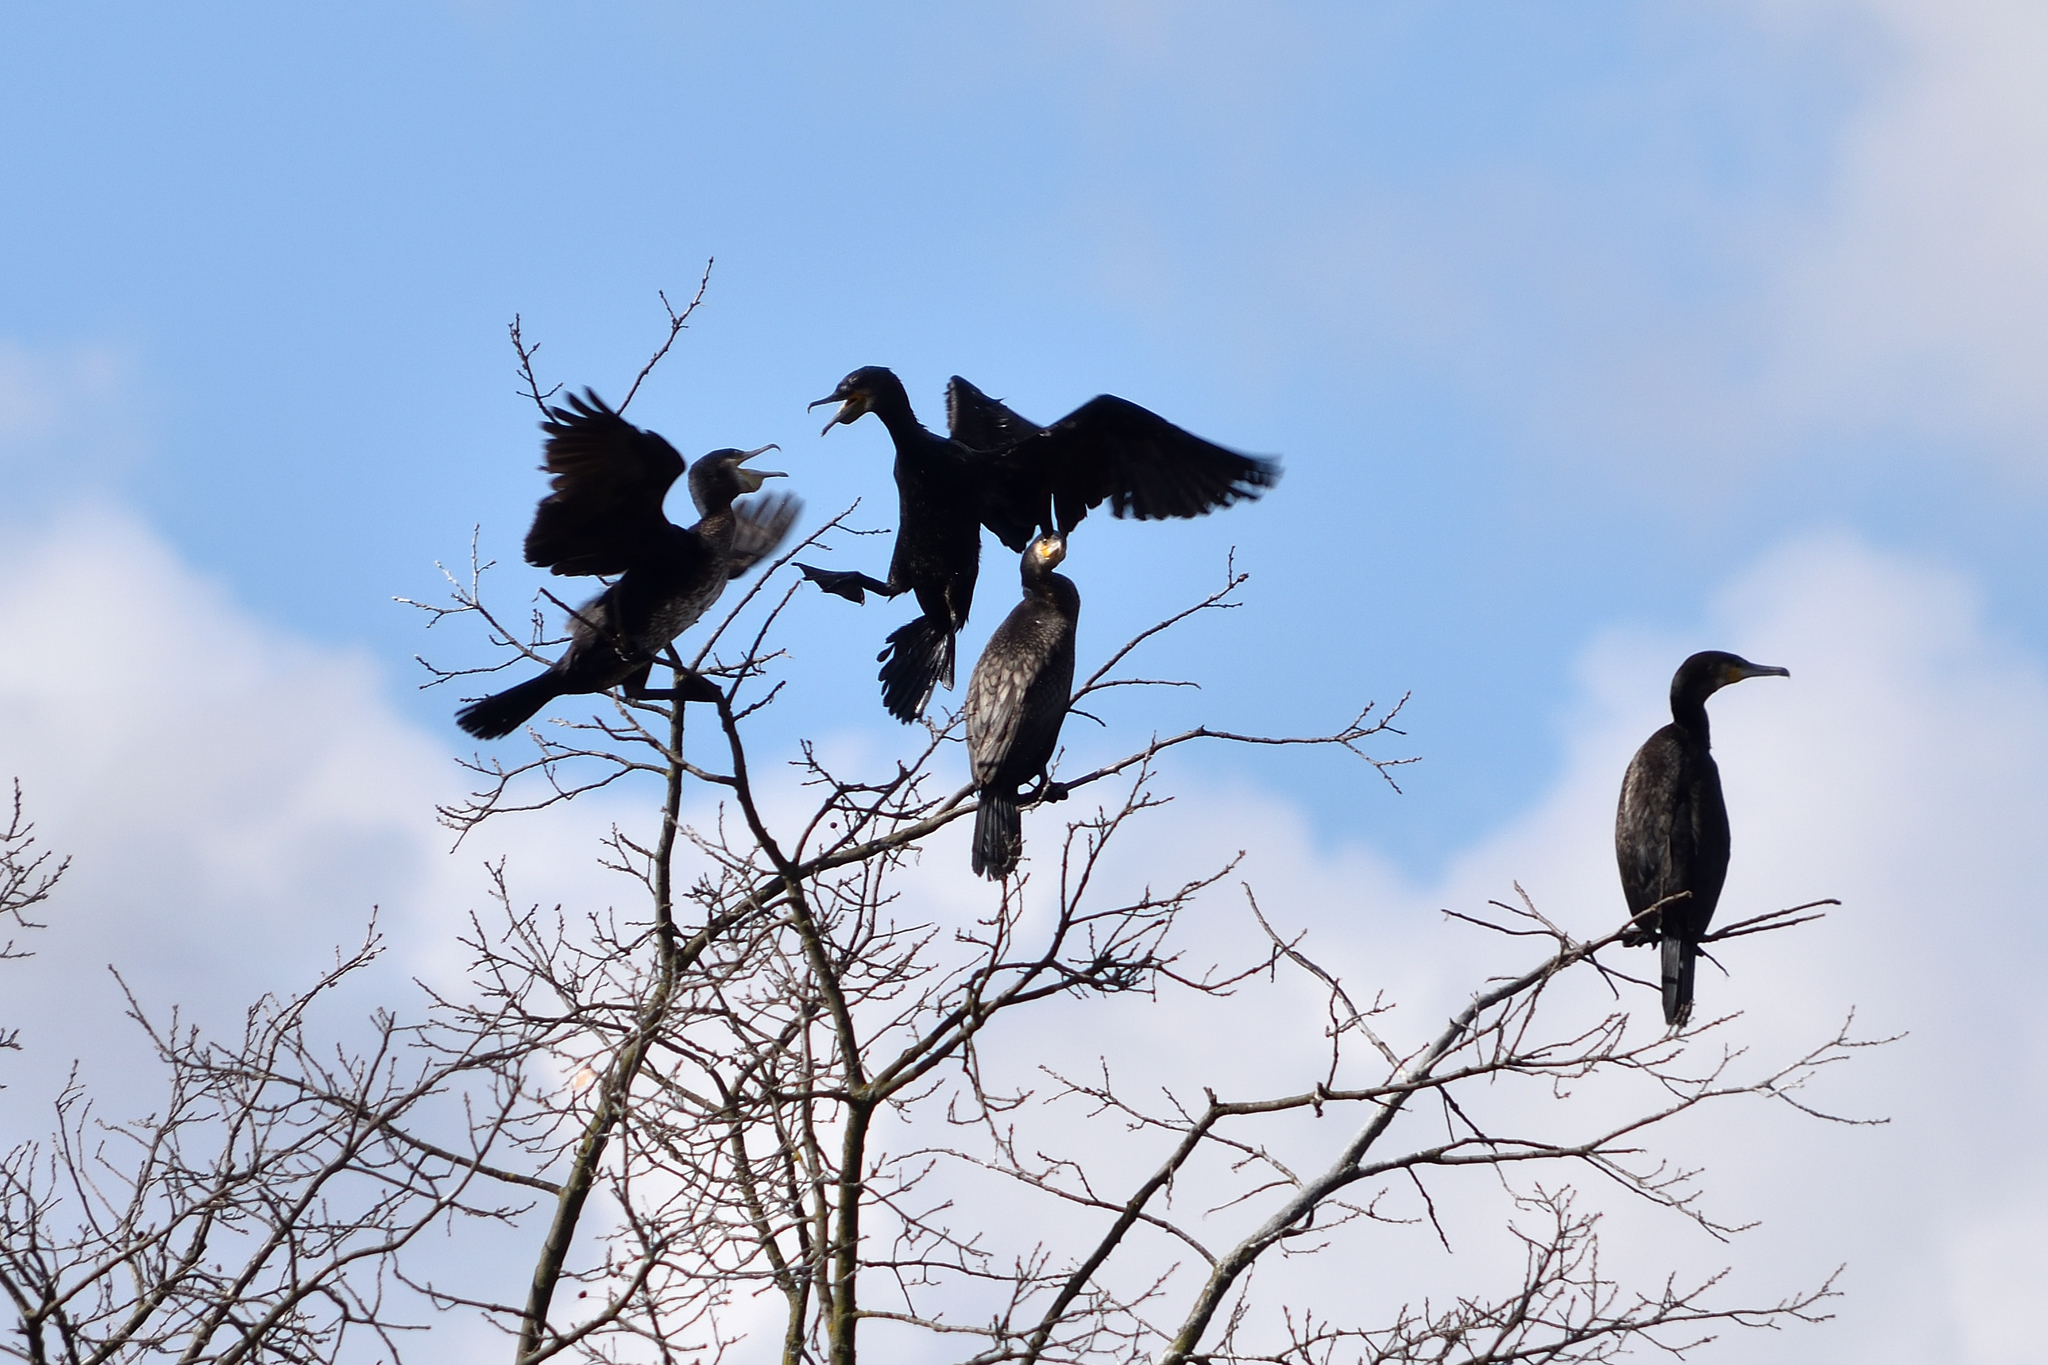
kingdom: Animalia
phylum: Chordata
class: Aves
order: Suliformes
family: Phalacrocoracidae
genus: Phalacrocorax
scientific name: Phalacrocorax carbo
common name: Great cormorant
